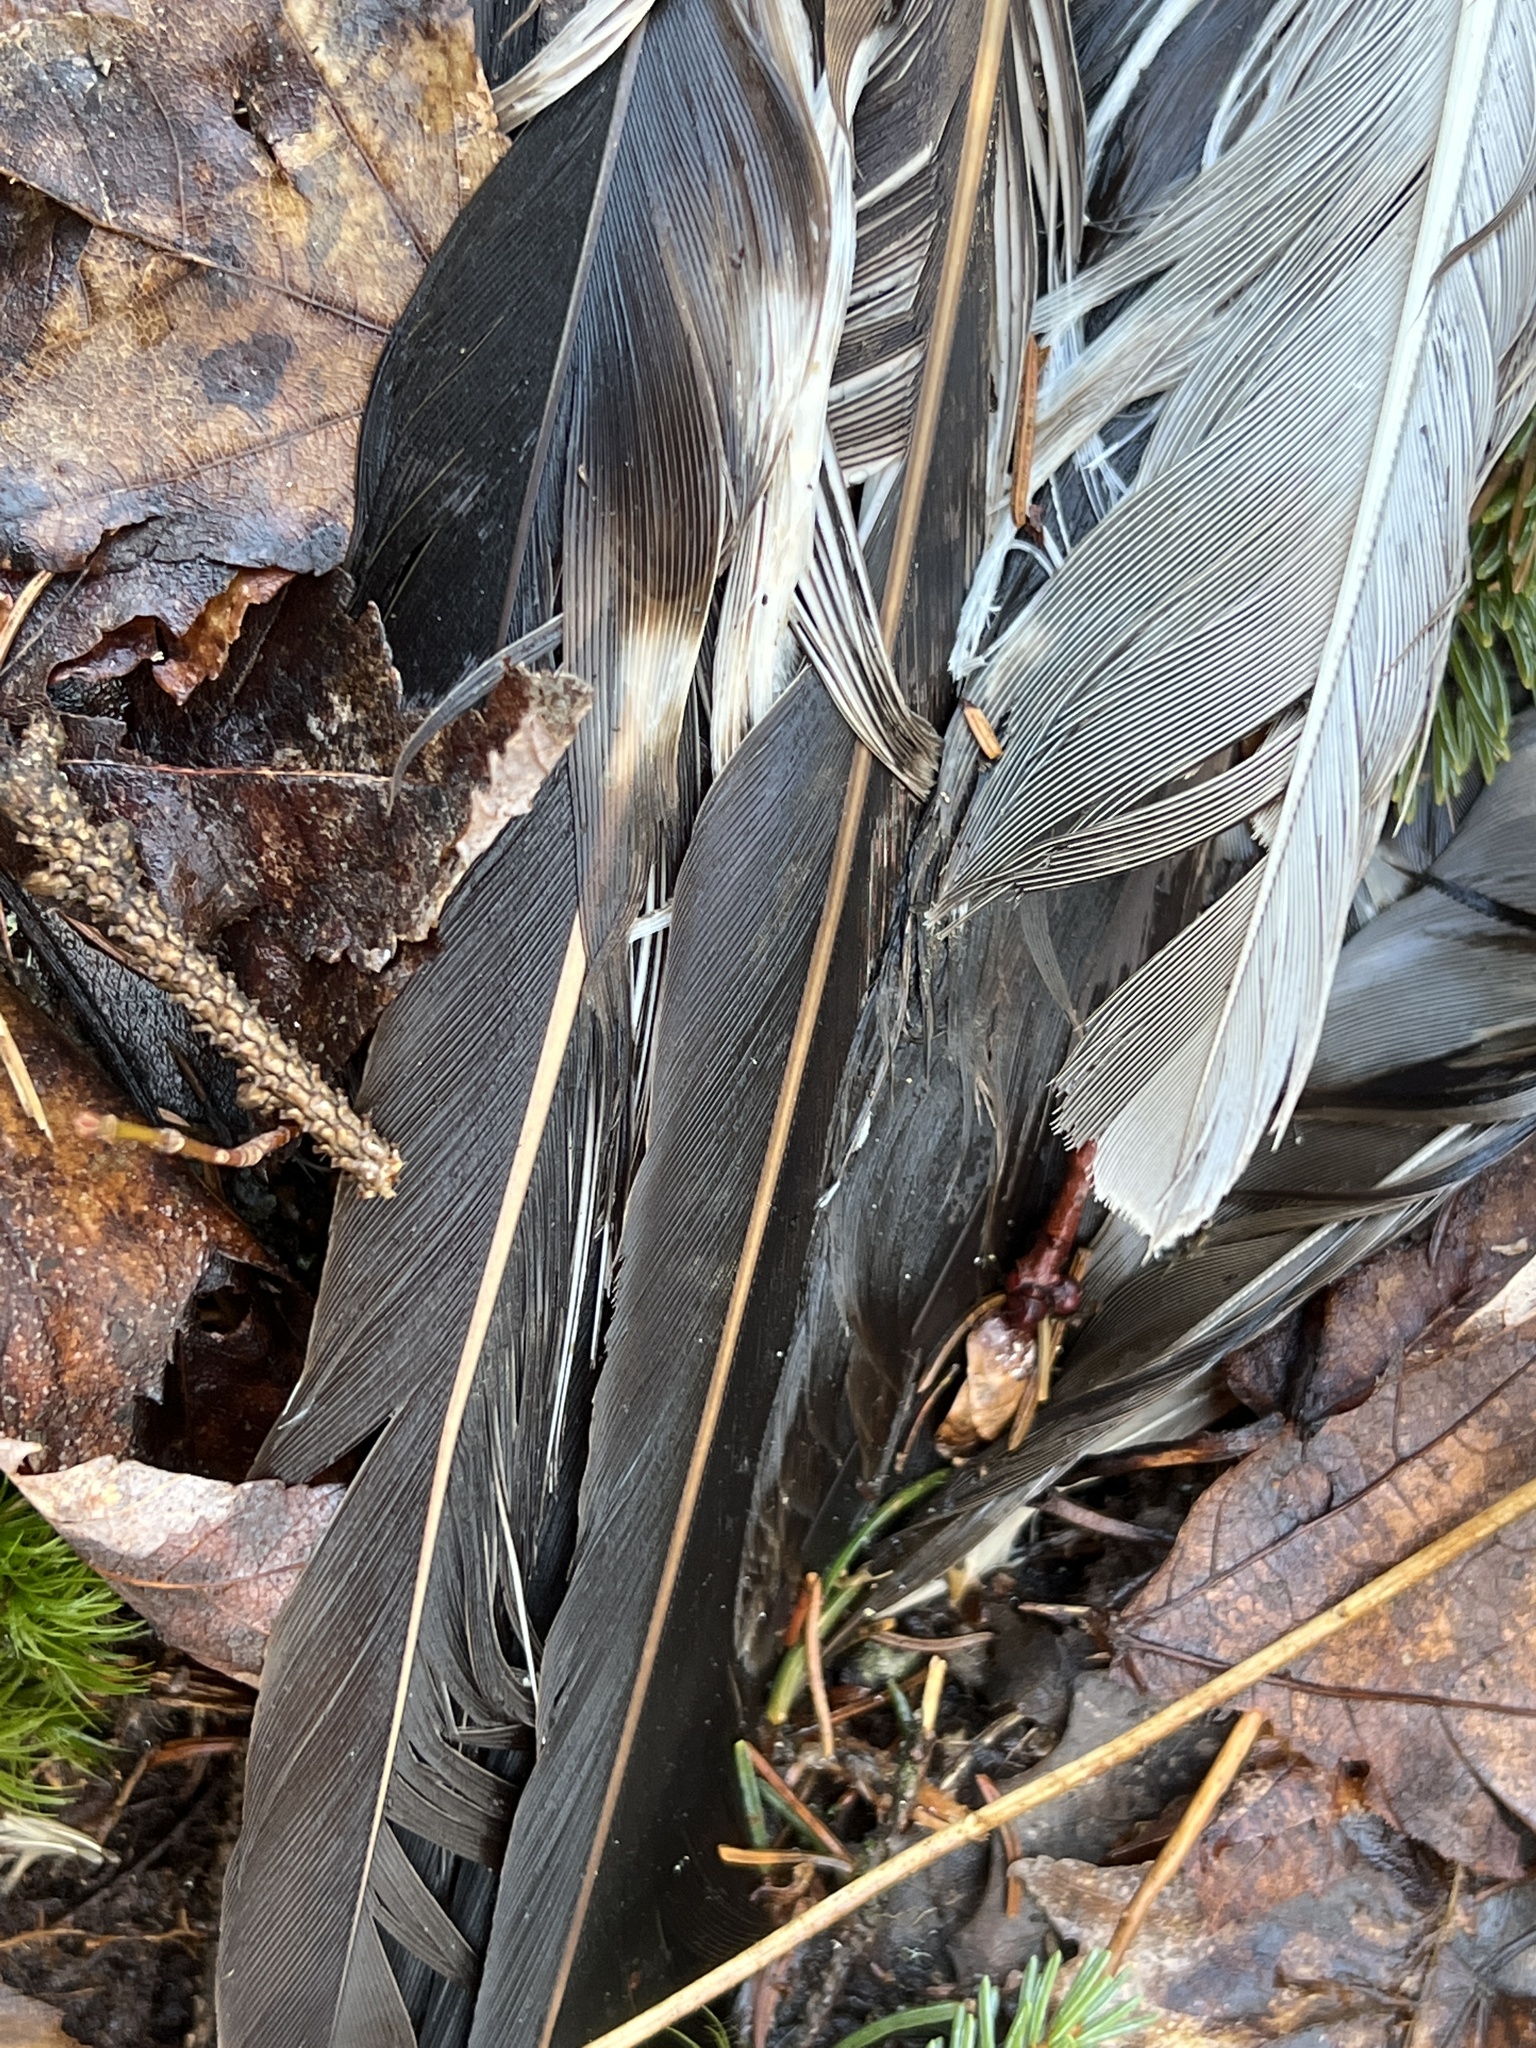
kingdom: Animalia
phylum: Chordata
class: Aves
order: Accipitriformes
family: Pandionidae
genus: Pandion
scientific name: Pandion haliaetus
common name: Osprey
